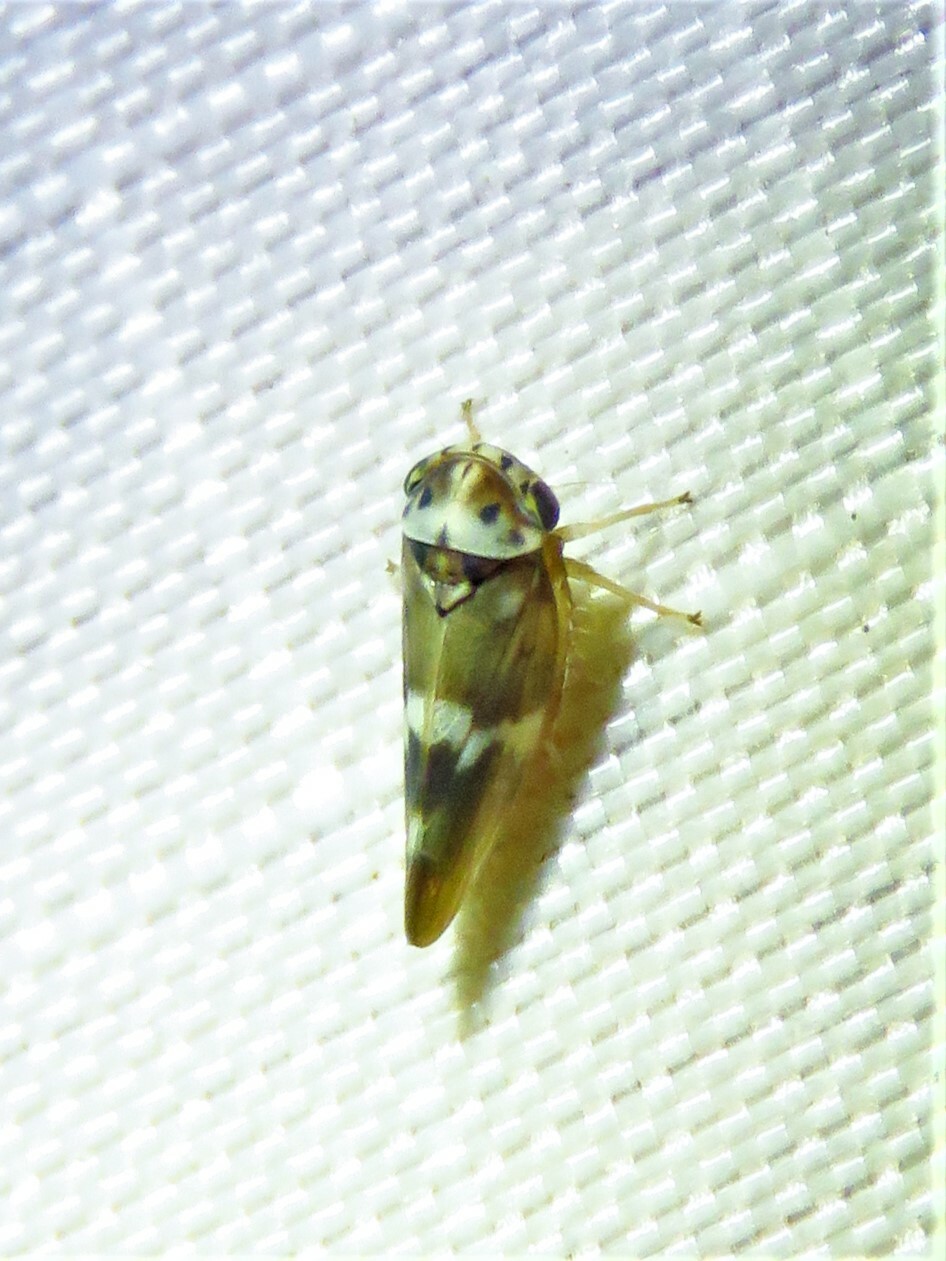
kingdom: Animalia
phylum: Arthropoda
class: Insecta
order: Hemiptera
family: Cicadellidae
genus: Agalliopsis
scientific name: Agalliopsis cervina
